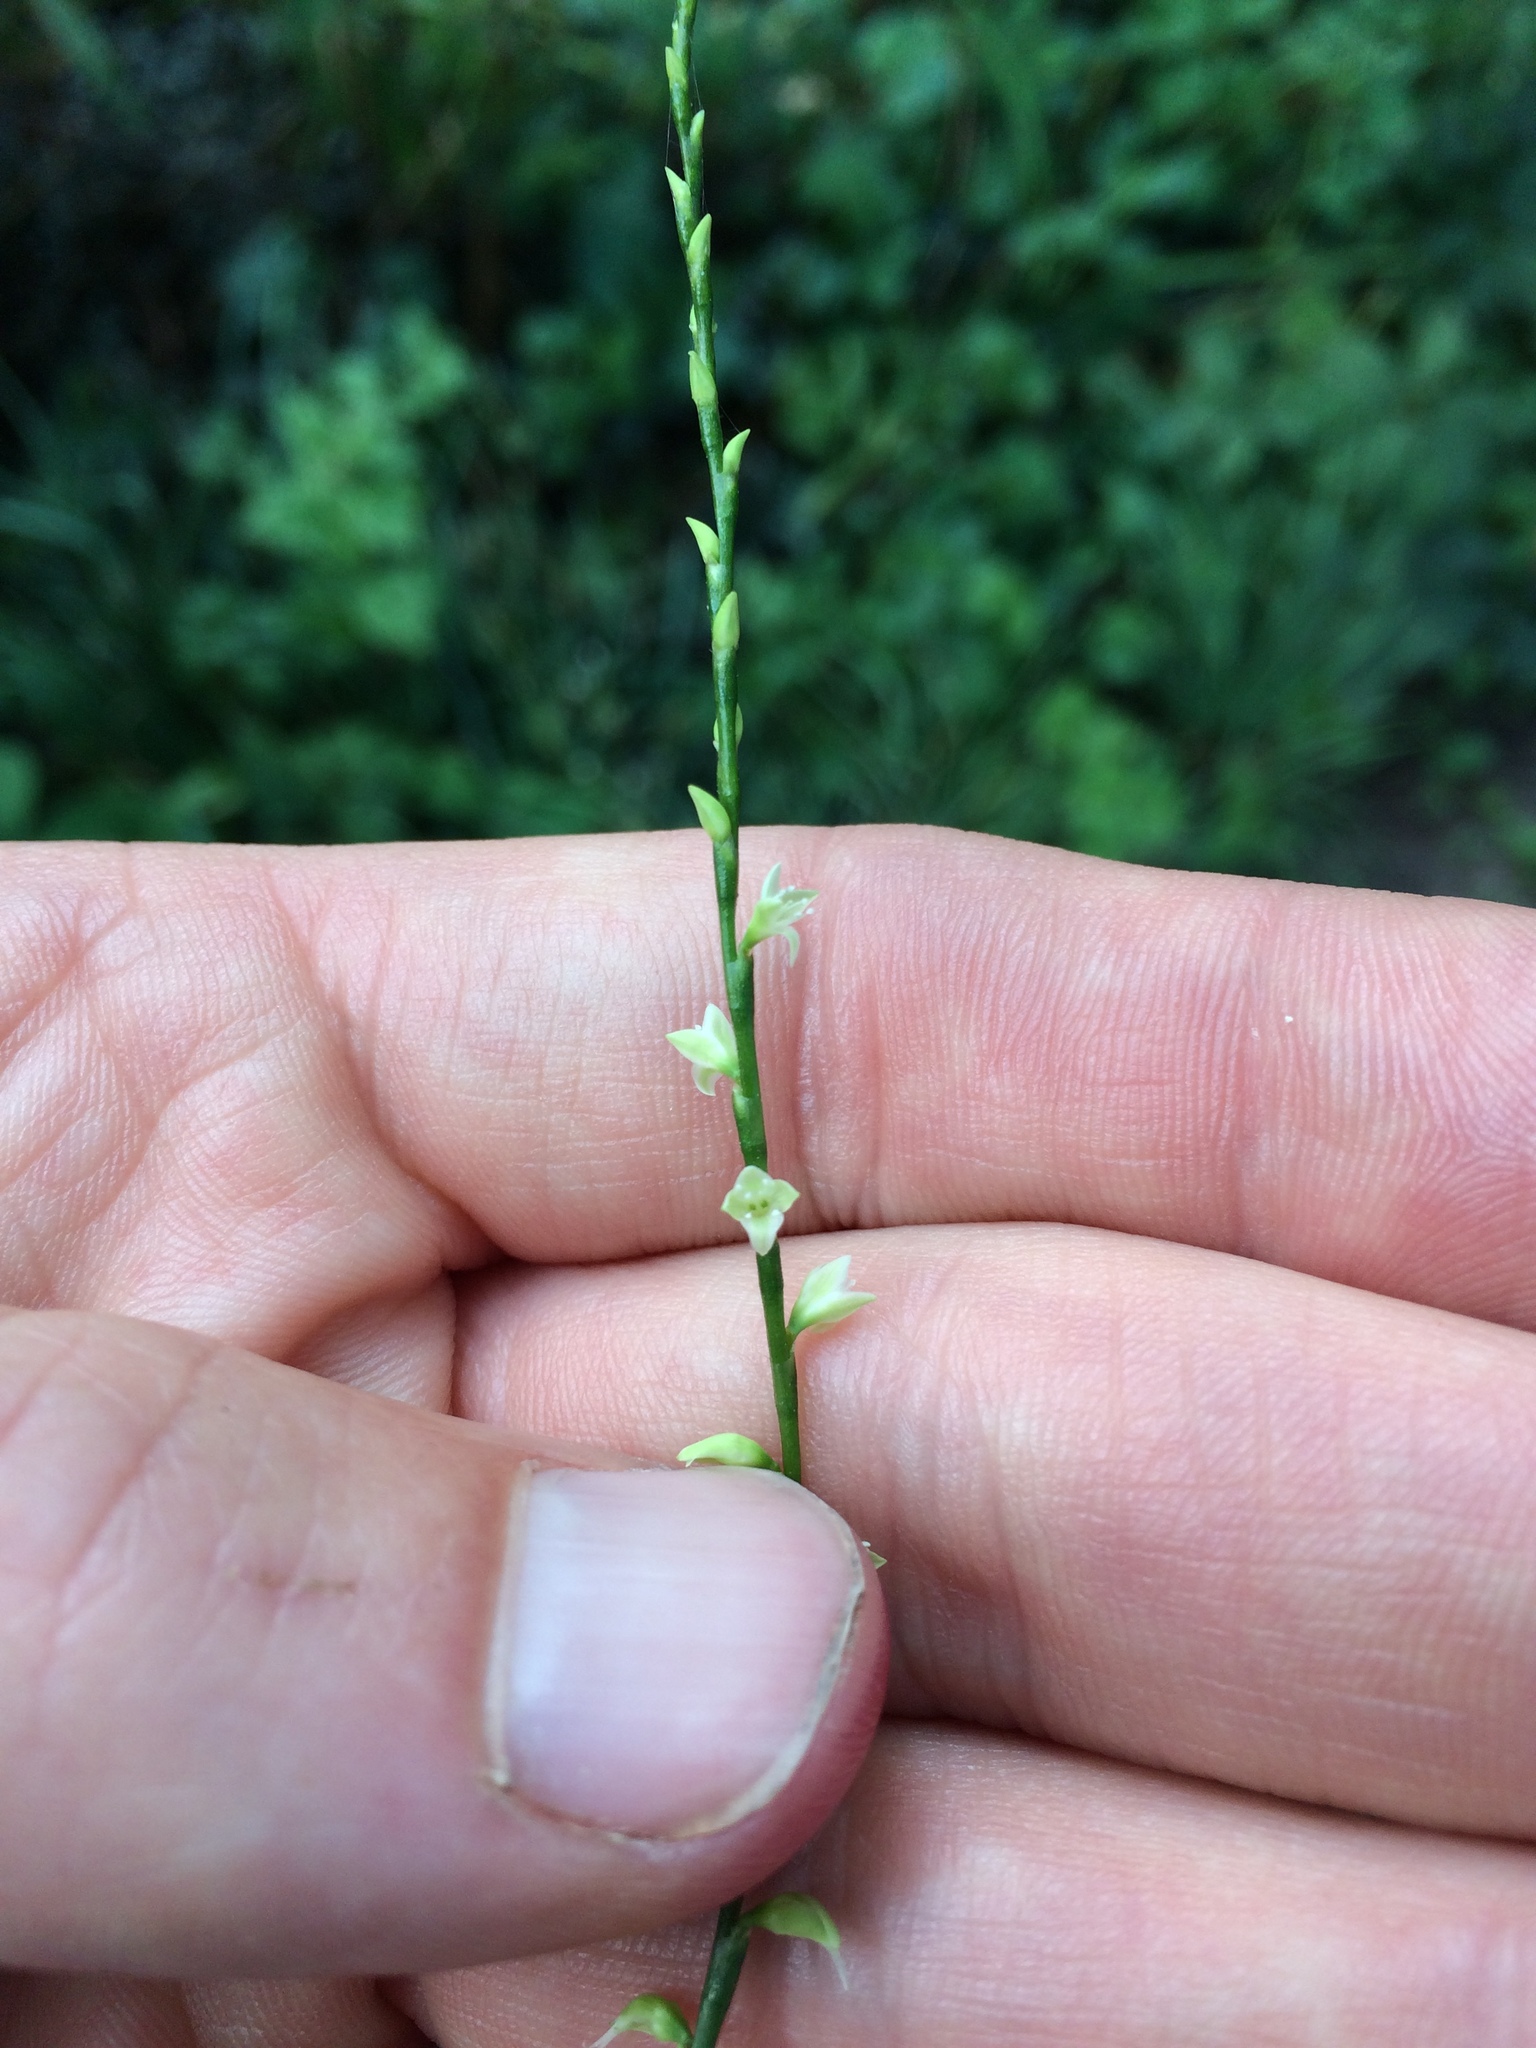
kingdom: Plantae
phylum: Tracheophyta
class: Magnoliopsida
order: Caryophyllales
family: Polygonaceae
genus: Persicaria
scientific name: Persicaria virginiana
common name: Jumpseed
